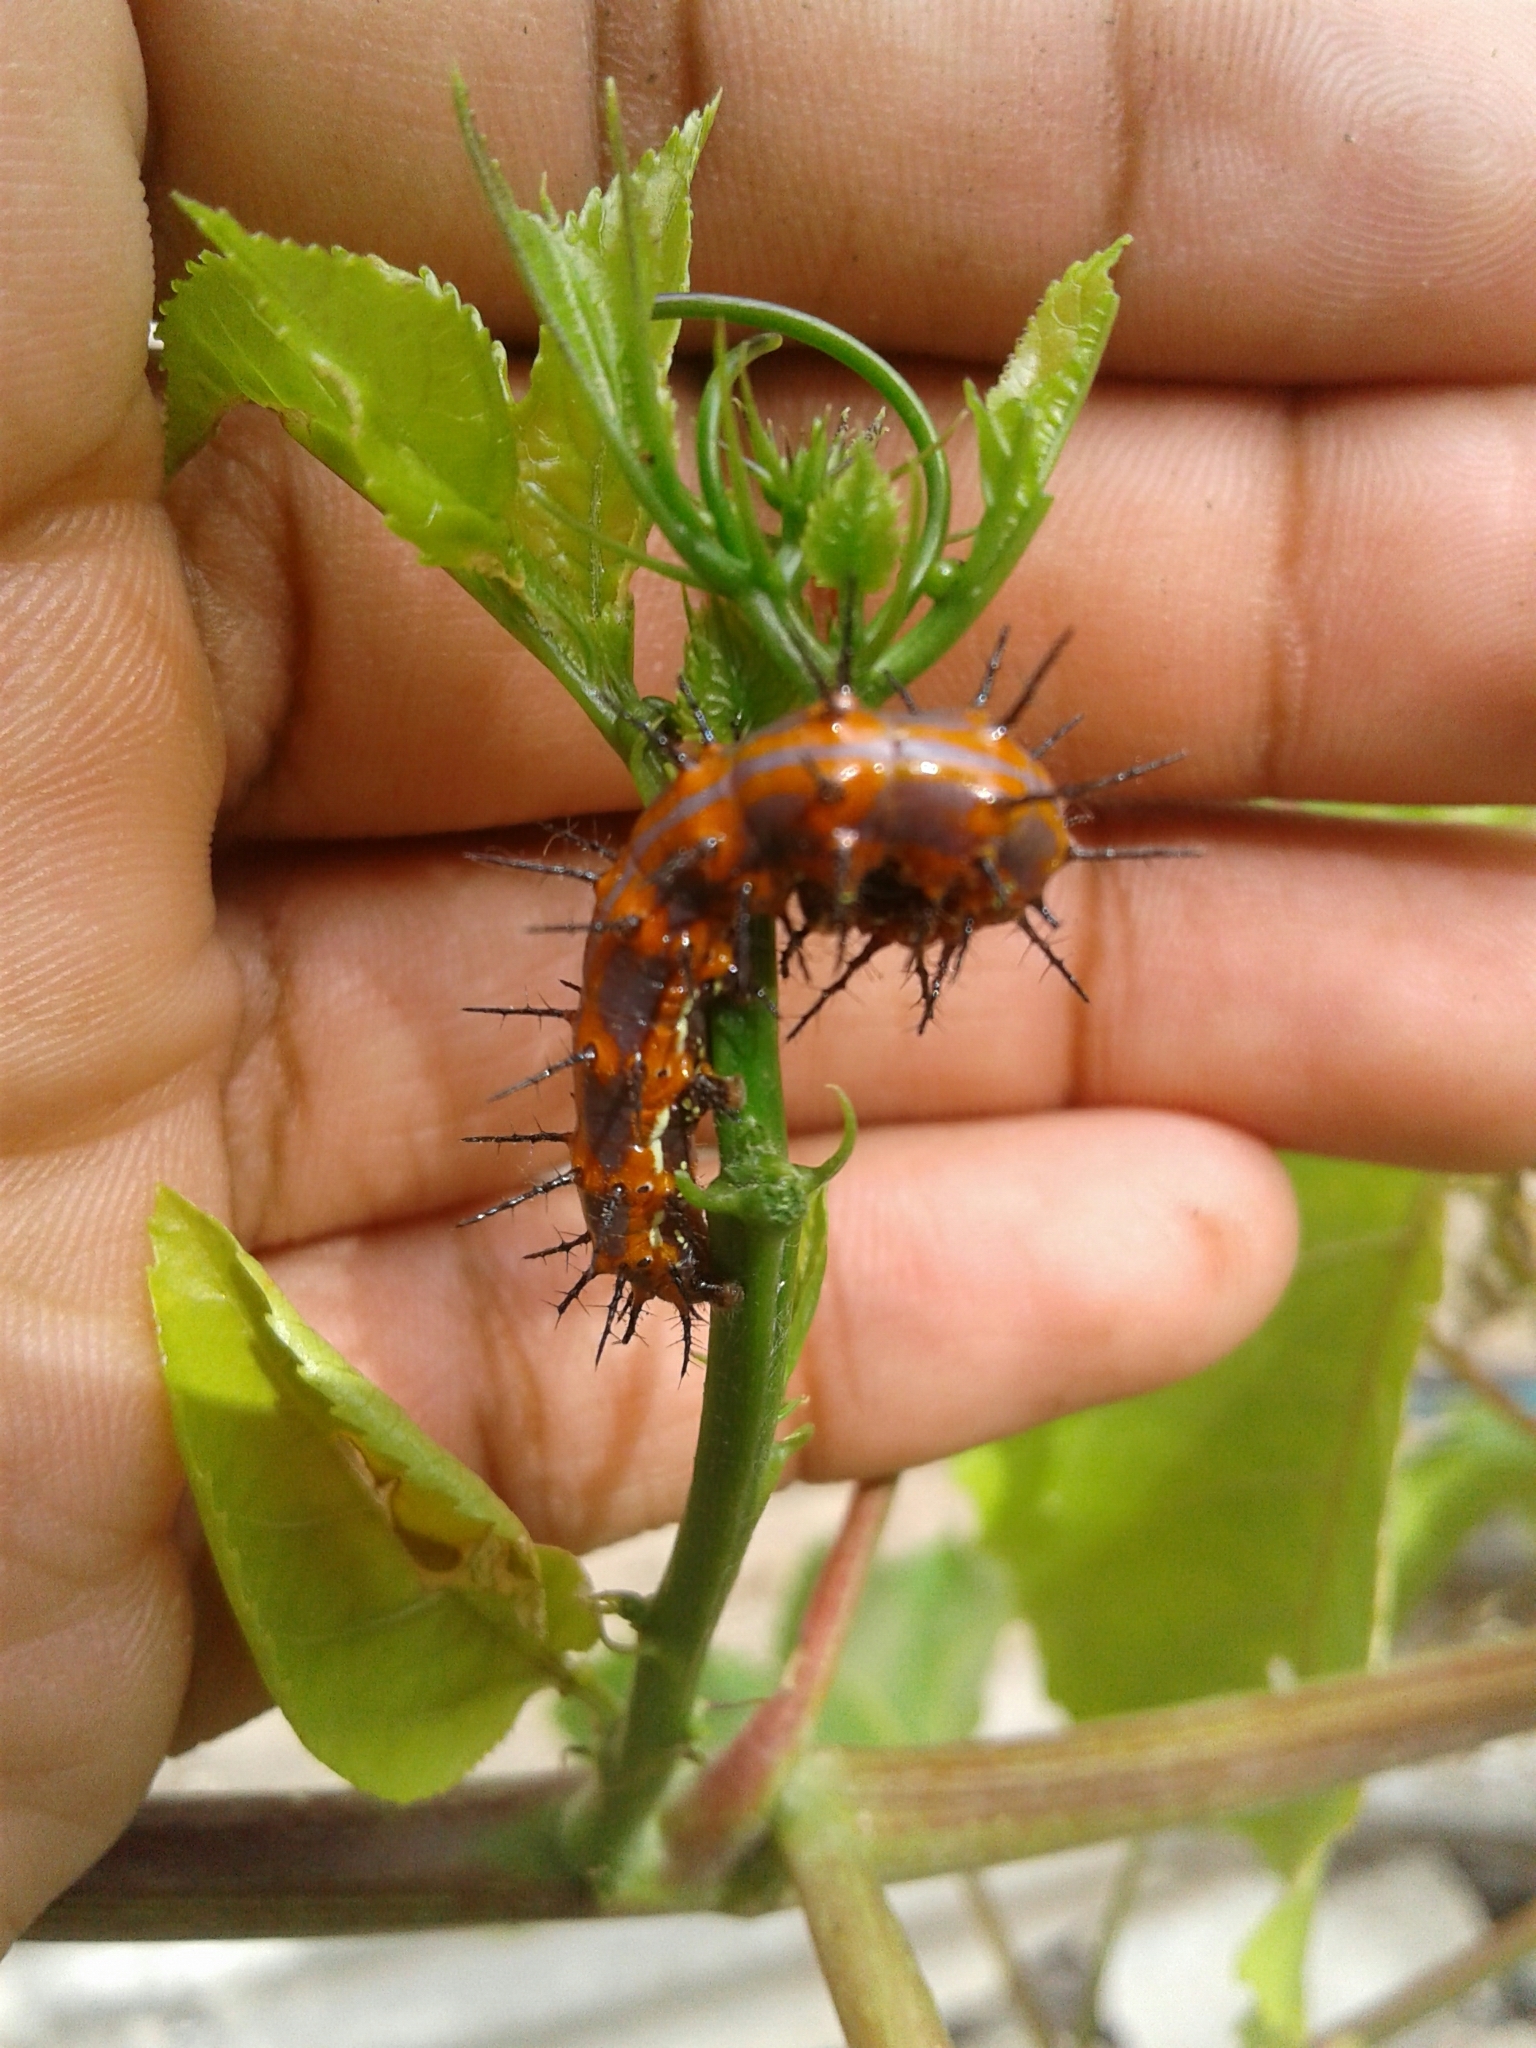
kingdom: Animalia
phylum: Arthropoda
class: Insecta
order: Lepidoptera
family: Nymphalidae
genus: Dione
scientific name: Dione vanillae
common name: Gulf fritillary
